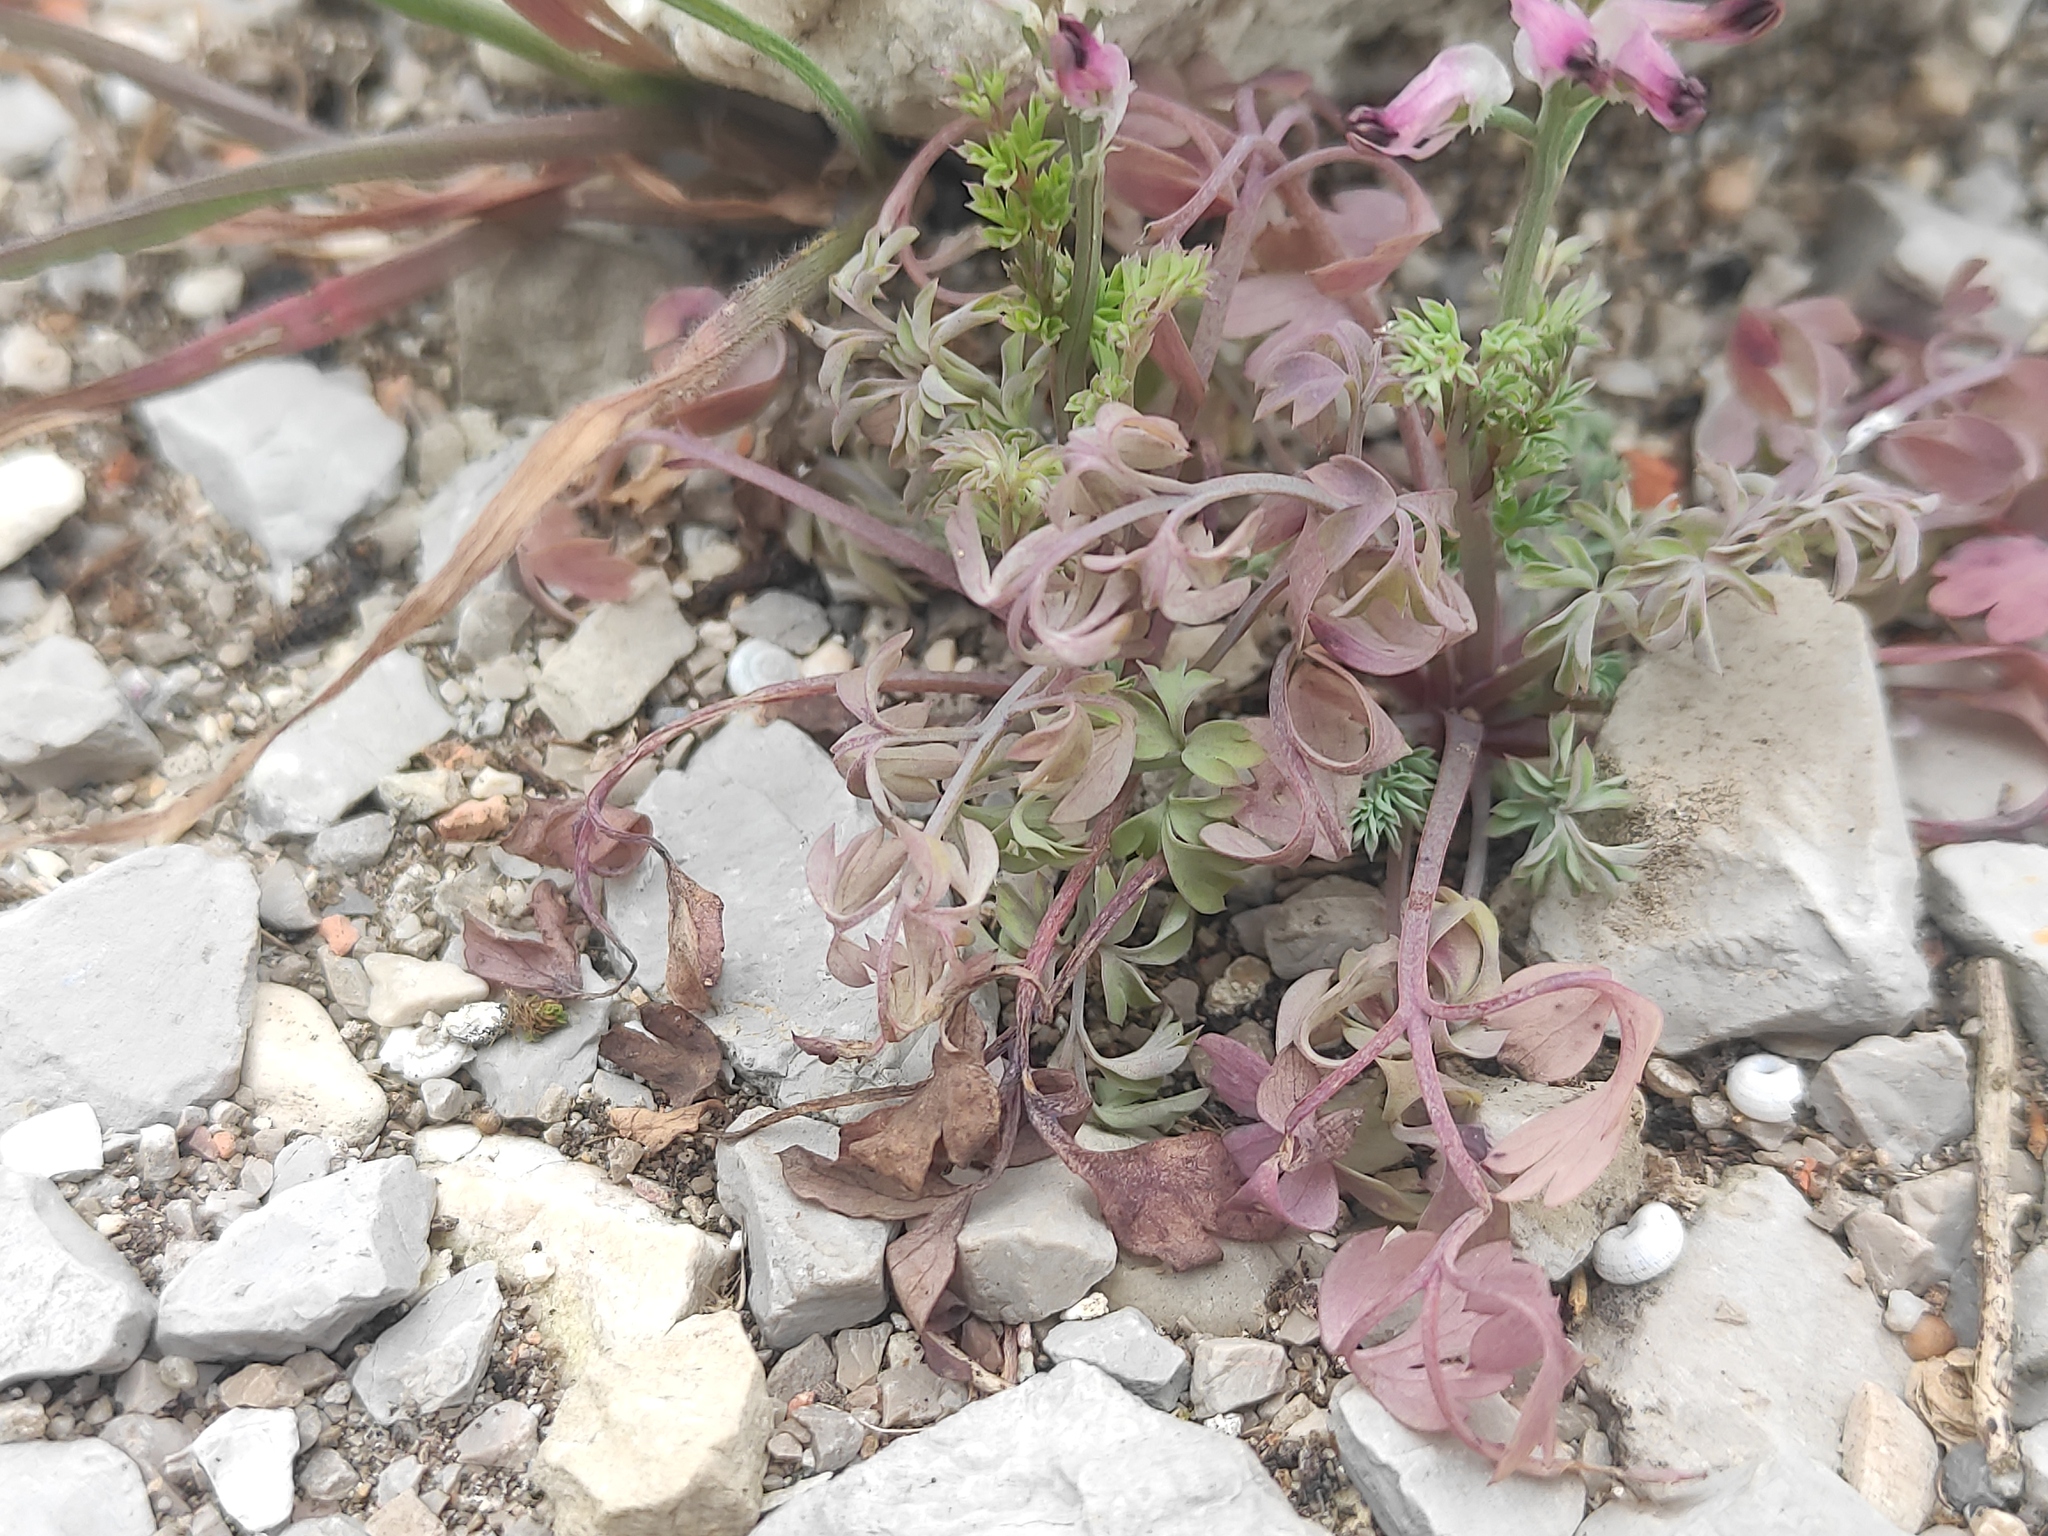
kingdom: Plantae
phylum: Tracheophyta
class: Magnoliopsida
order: Ranunculales
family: Papaveraceae
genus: Fumaria
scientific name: Fumaria munbyi
